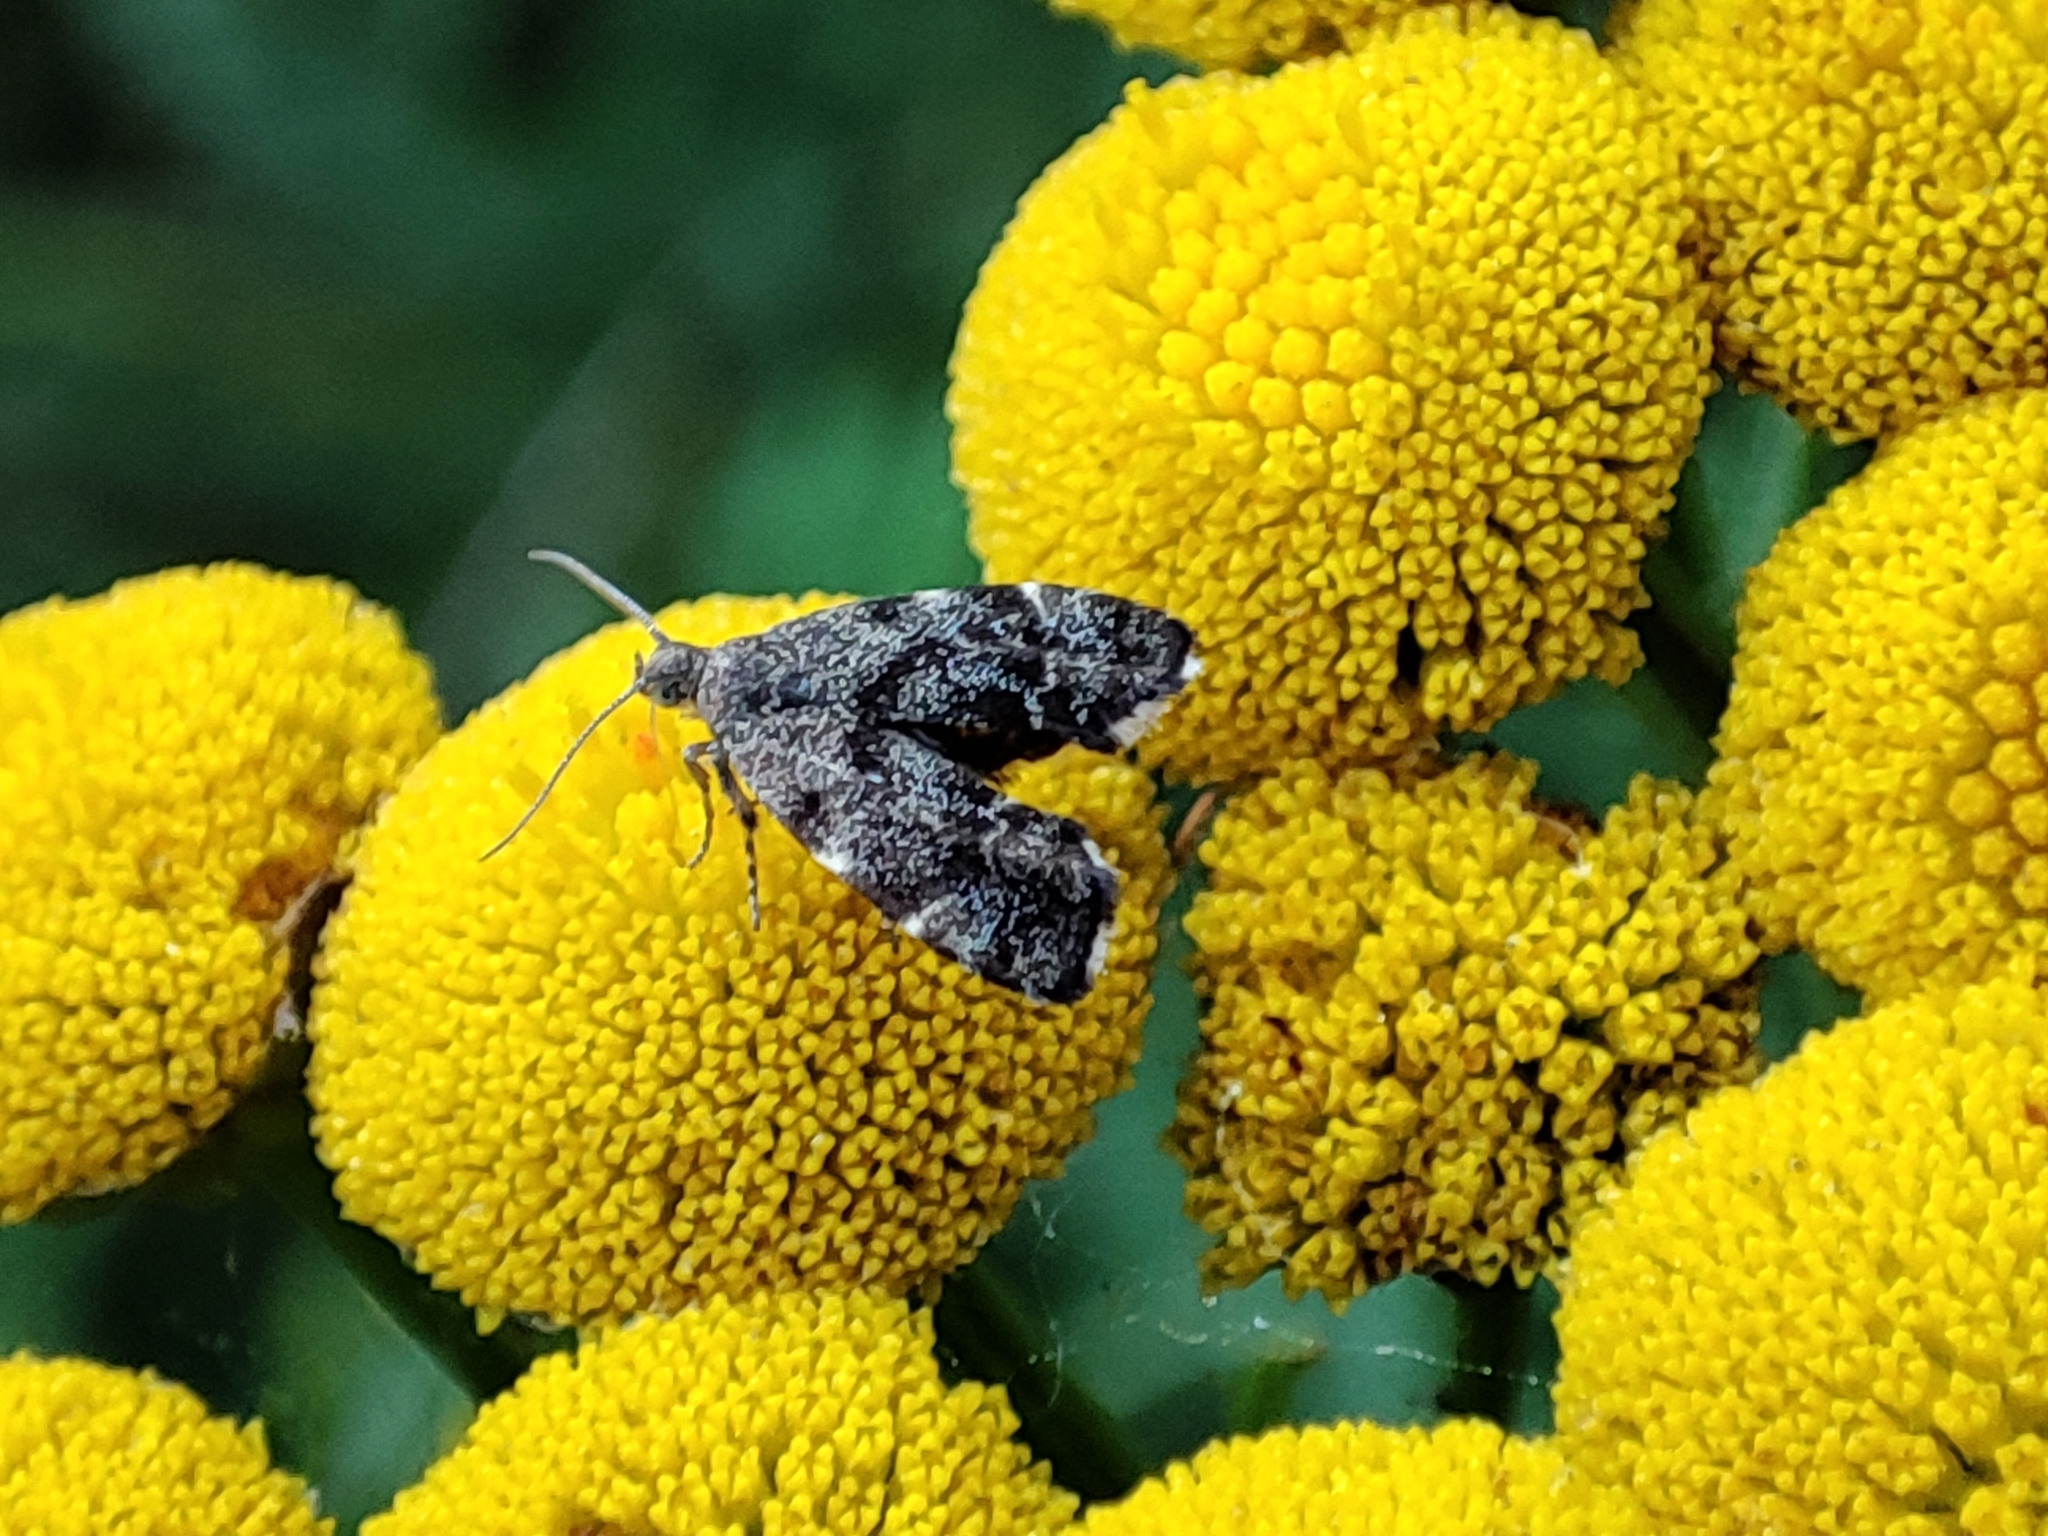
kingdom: Animalia
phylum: Arthropoda
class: Insecta
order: Lepidoptera
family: Choreutidae
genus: Anthophila
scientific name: Anthophila fabriciana
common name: Nettle-tap
